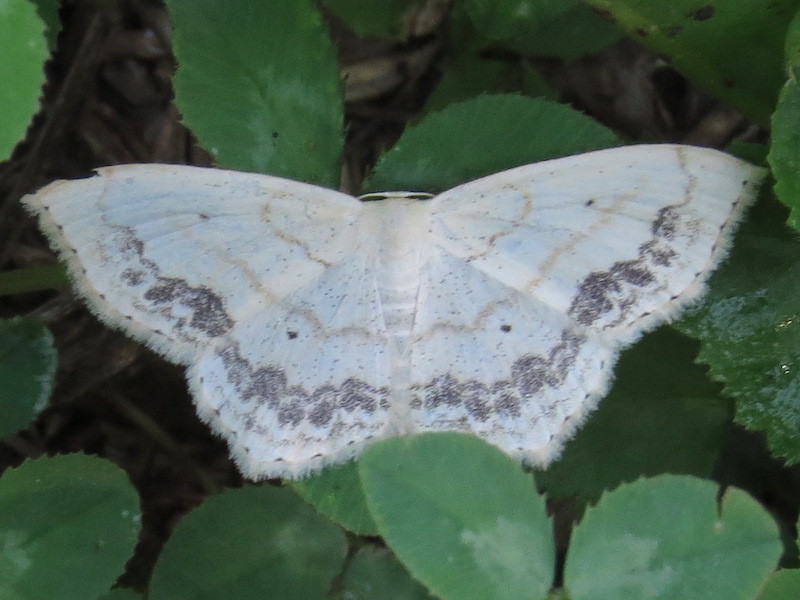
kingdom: Animalia
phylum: Arthropoda
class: Insecta
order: Lepidoptera
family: Geometridae
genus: Scopula
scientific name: Scopula limboundata
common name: Large lace border
